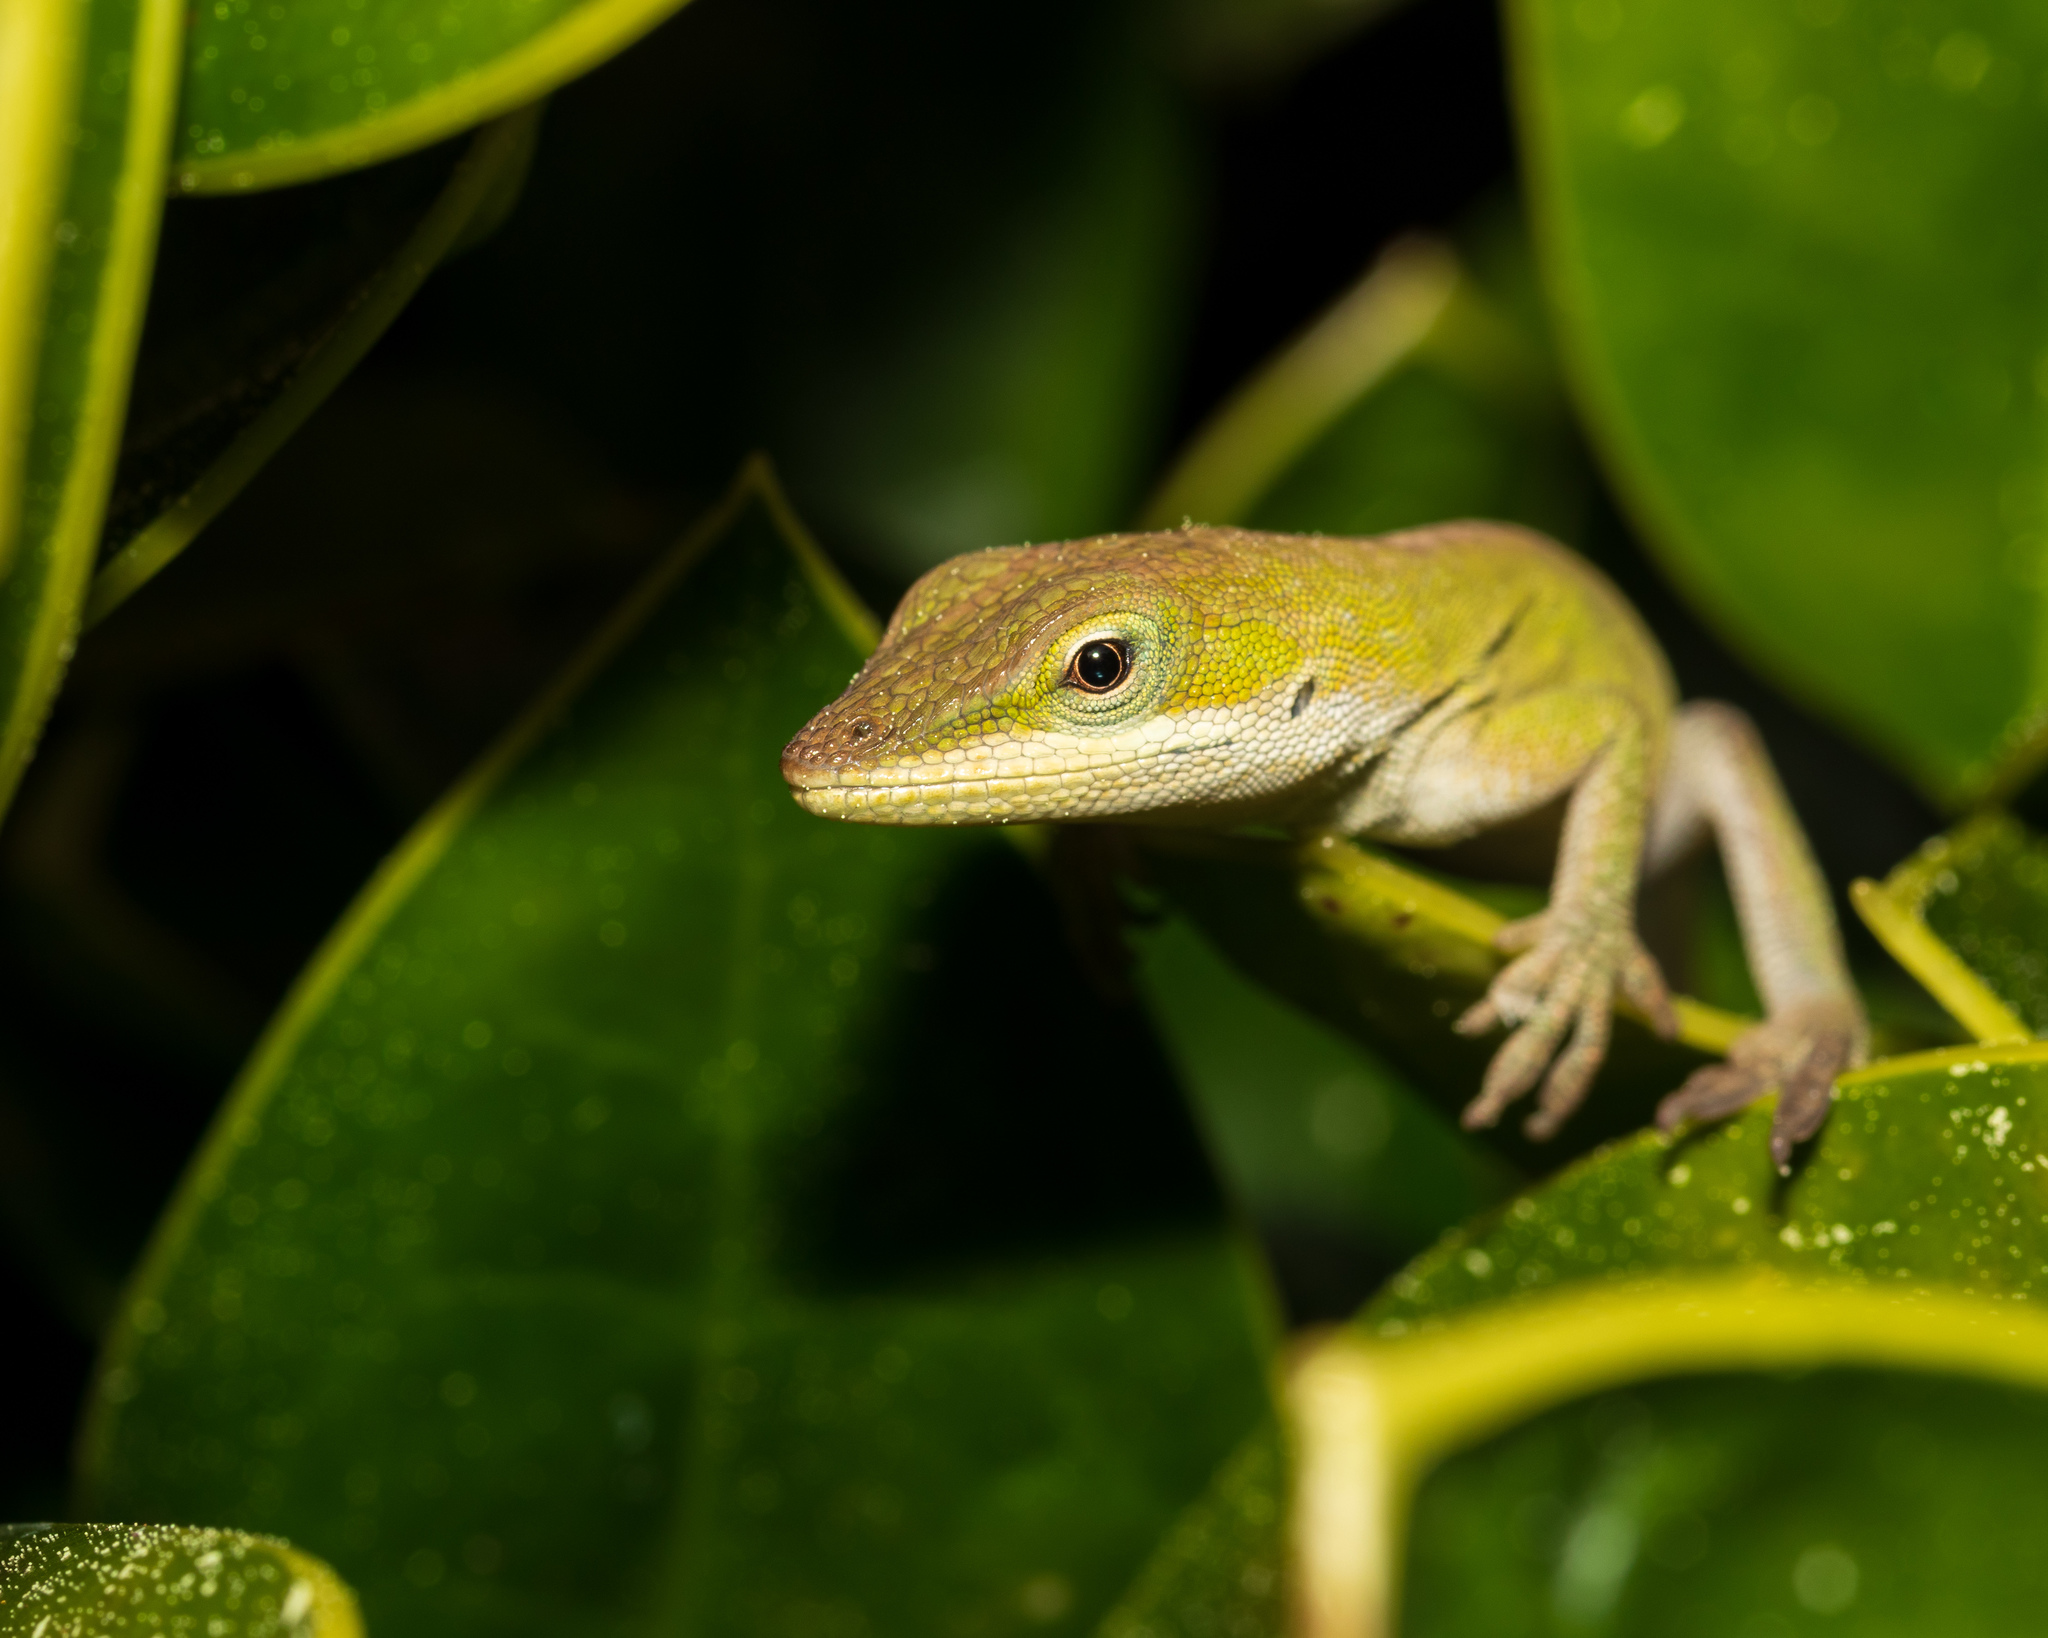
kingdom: Animalia
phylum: Chordata
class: Squamata
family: Dactyloidae
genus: Anolis
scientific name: Anolis carolinensis
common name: Green anole
